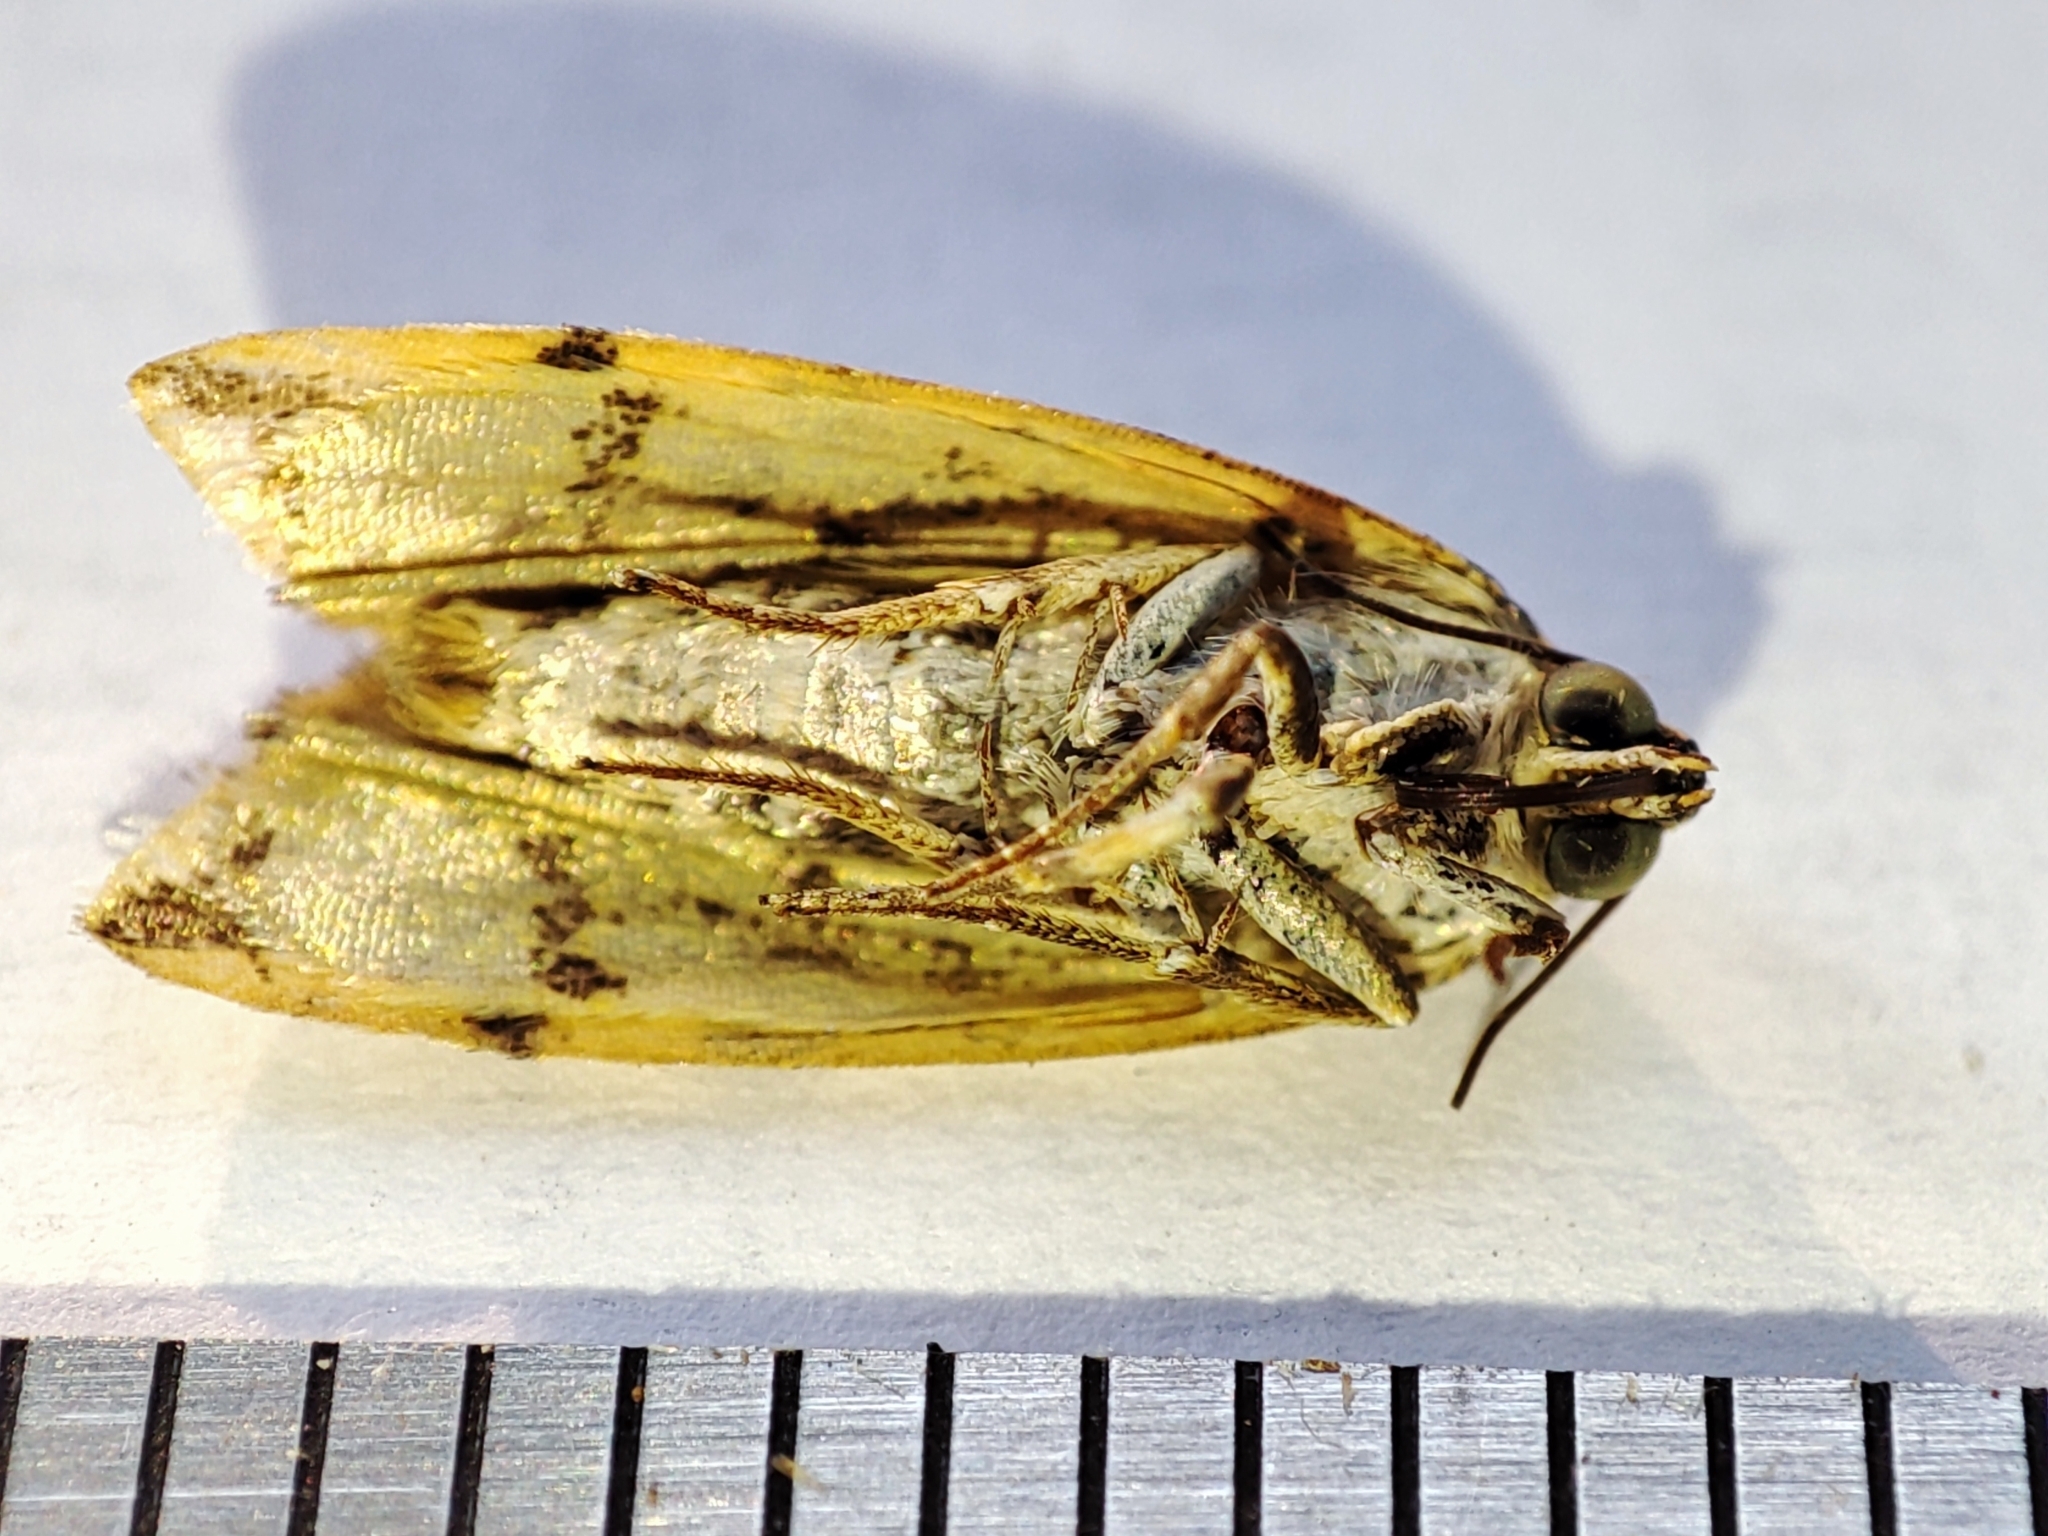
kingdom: Animalia
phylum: Arthropoda
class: Insecta
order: Lepidoptera
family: Noctuidae
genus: Acontia
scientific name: Acontia trabealis
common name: Spotted sulphur
